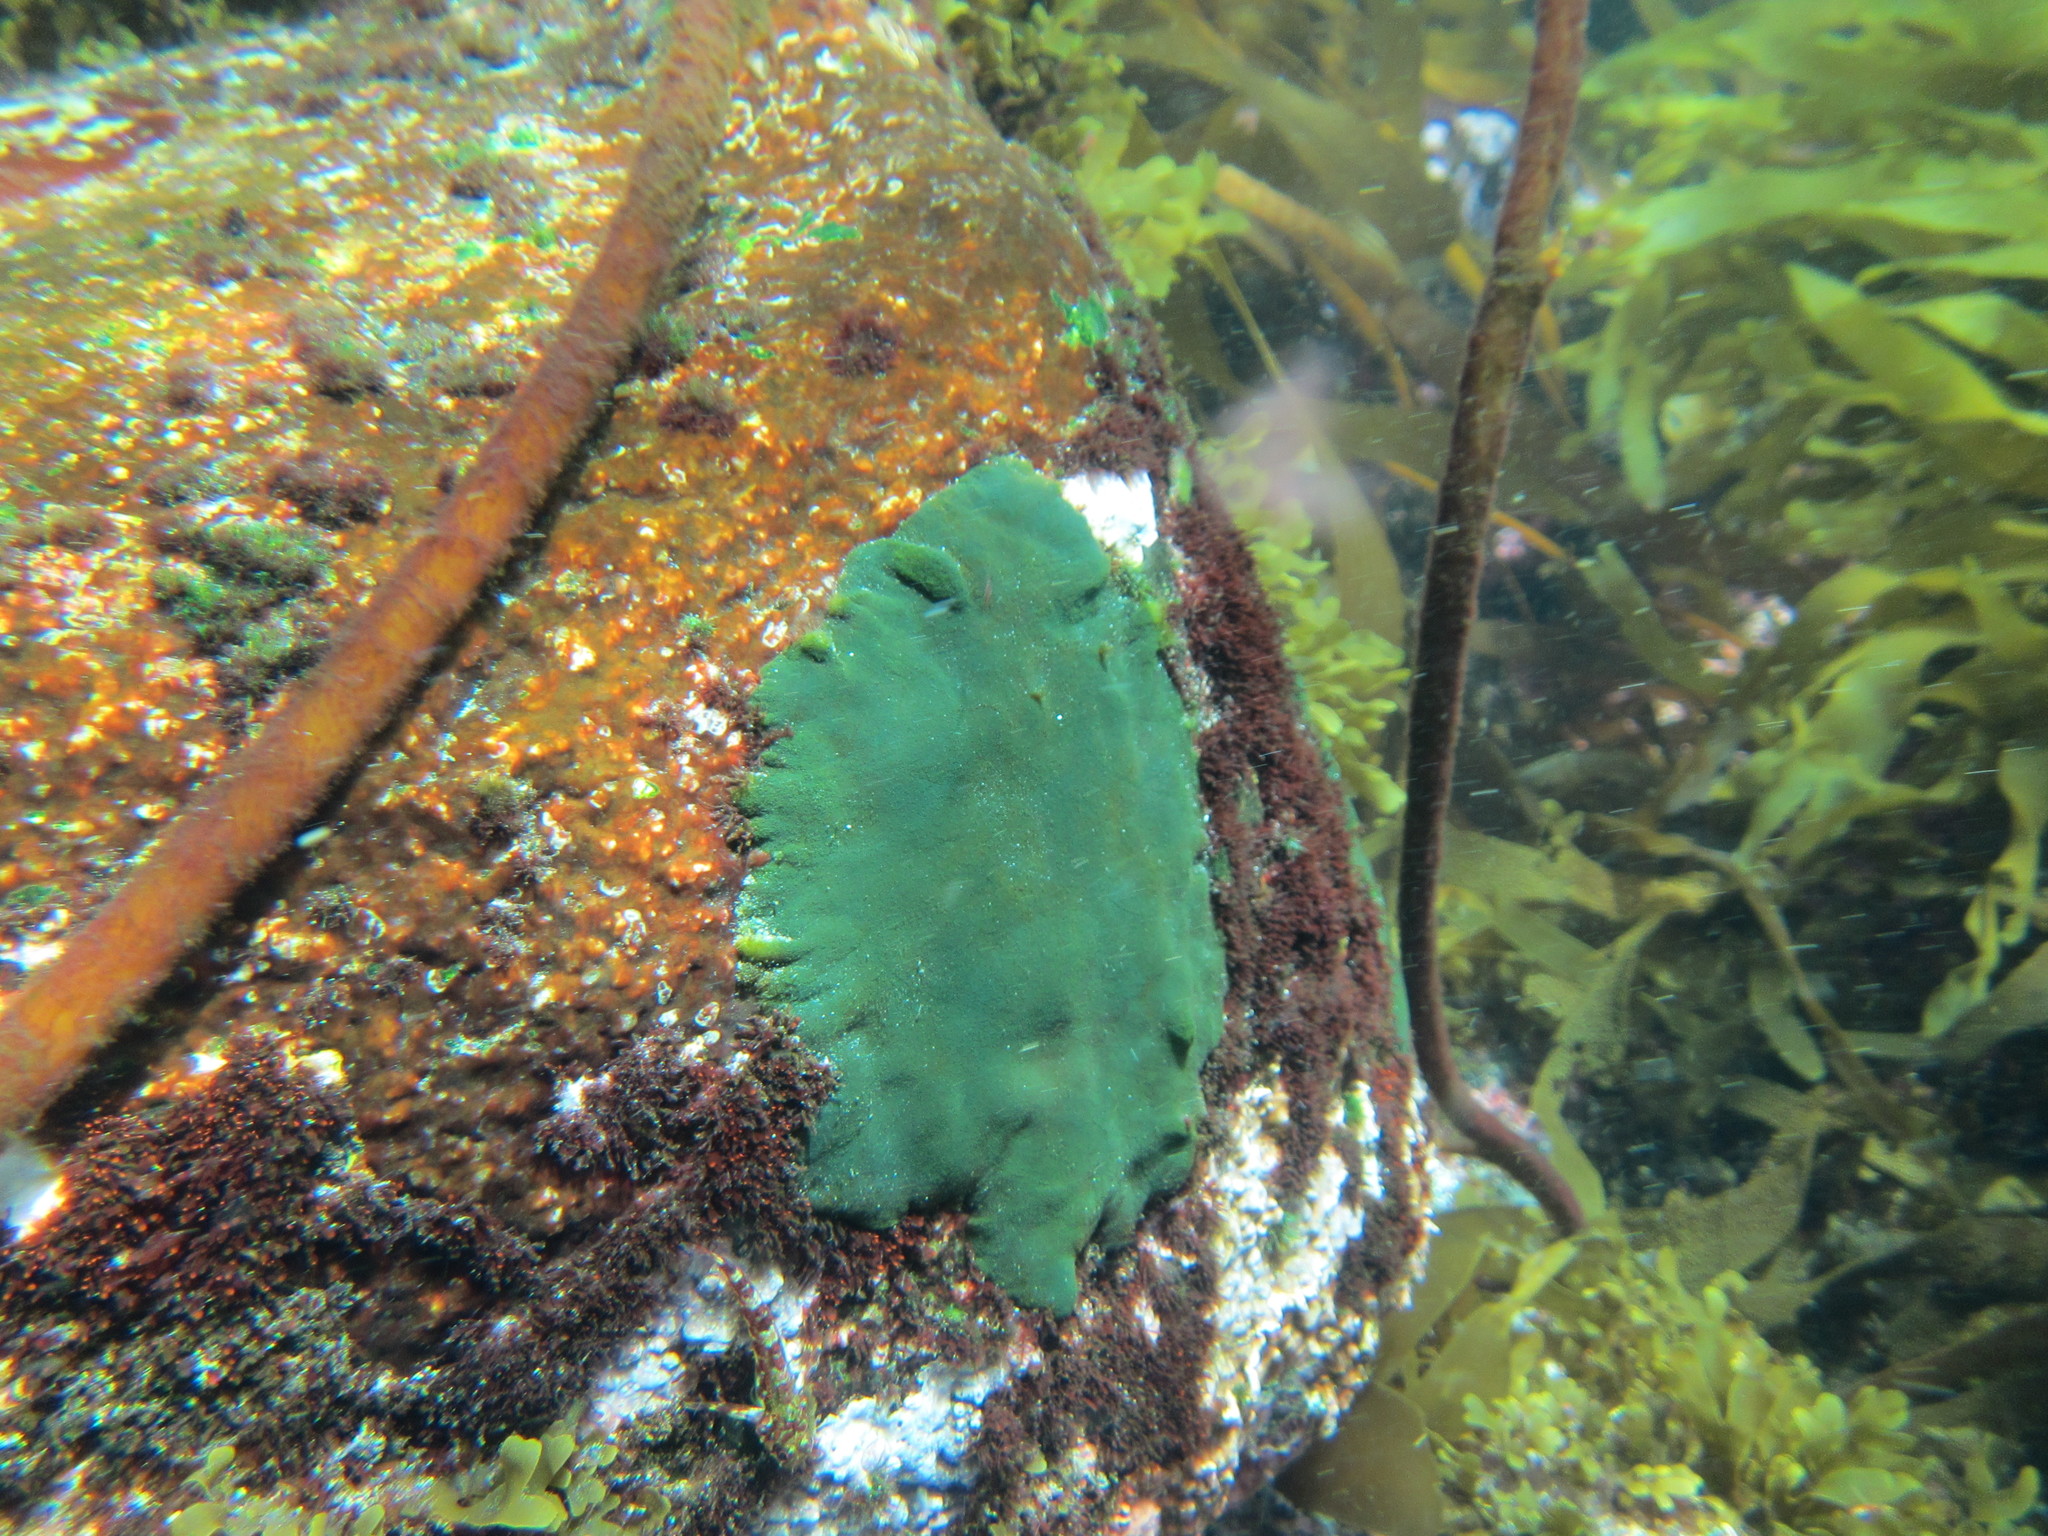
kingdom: Plantae
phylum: Chlorophyta
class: Ulvophyceae
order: Bryopsidales
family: Codiaceae
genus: Codium
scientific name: Codium
